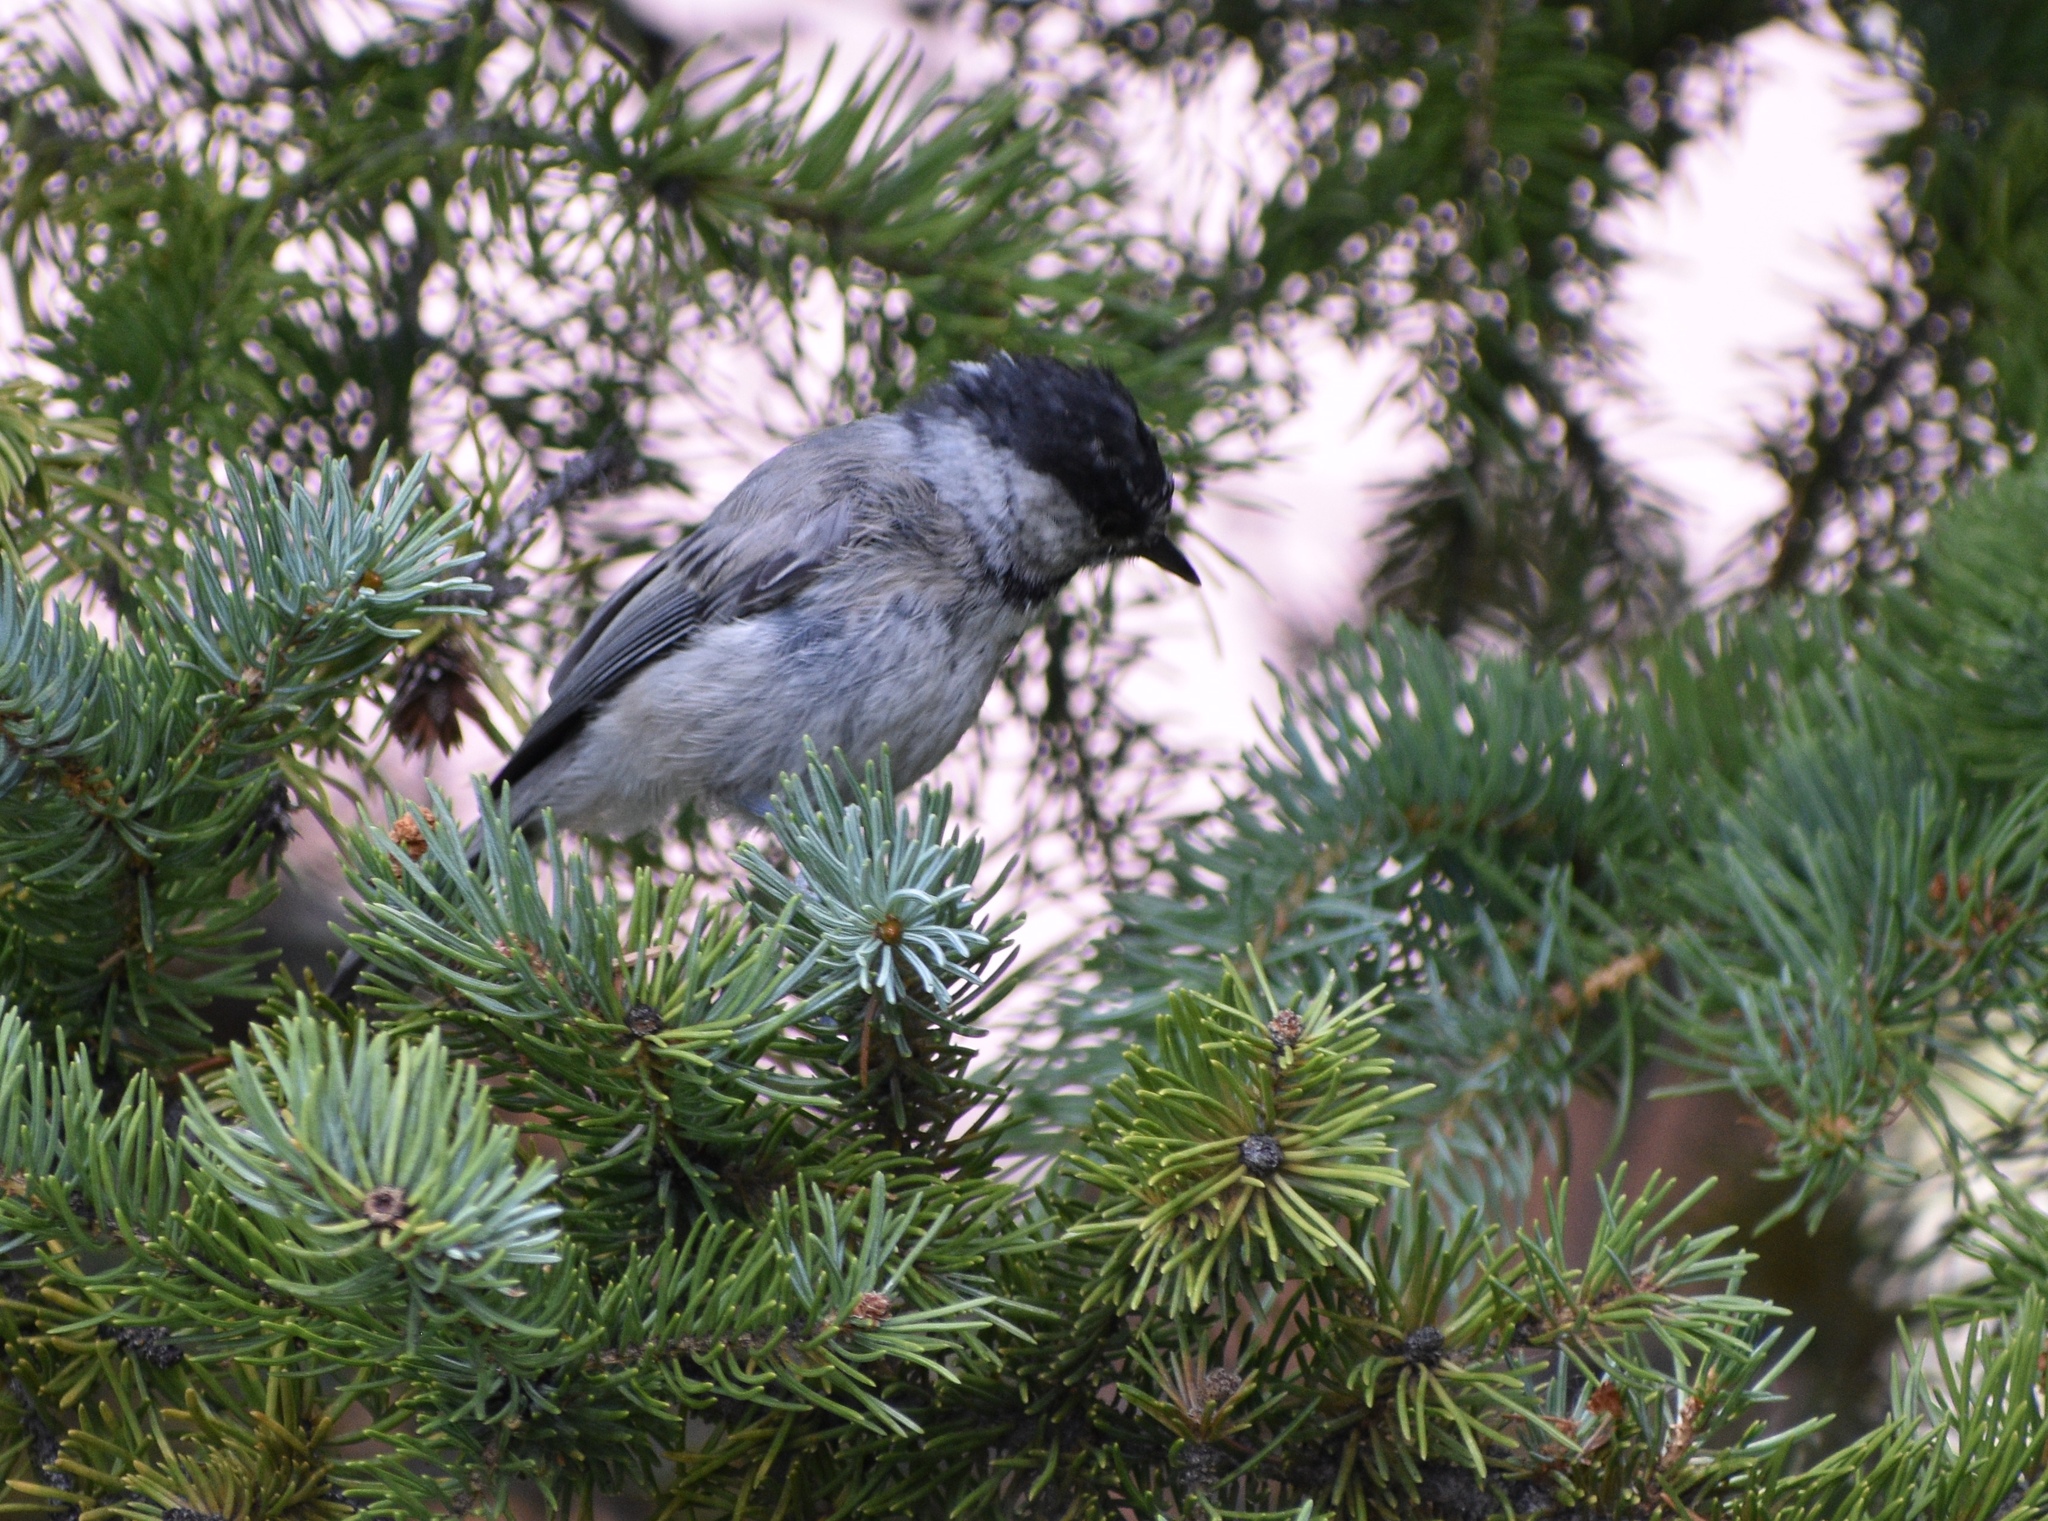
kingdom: Animalia
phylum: Chordata
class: Aves
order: Passeriformes
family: Paridae
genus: Poecile
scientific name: Poecile gambeli
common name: Mountain chickadee
